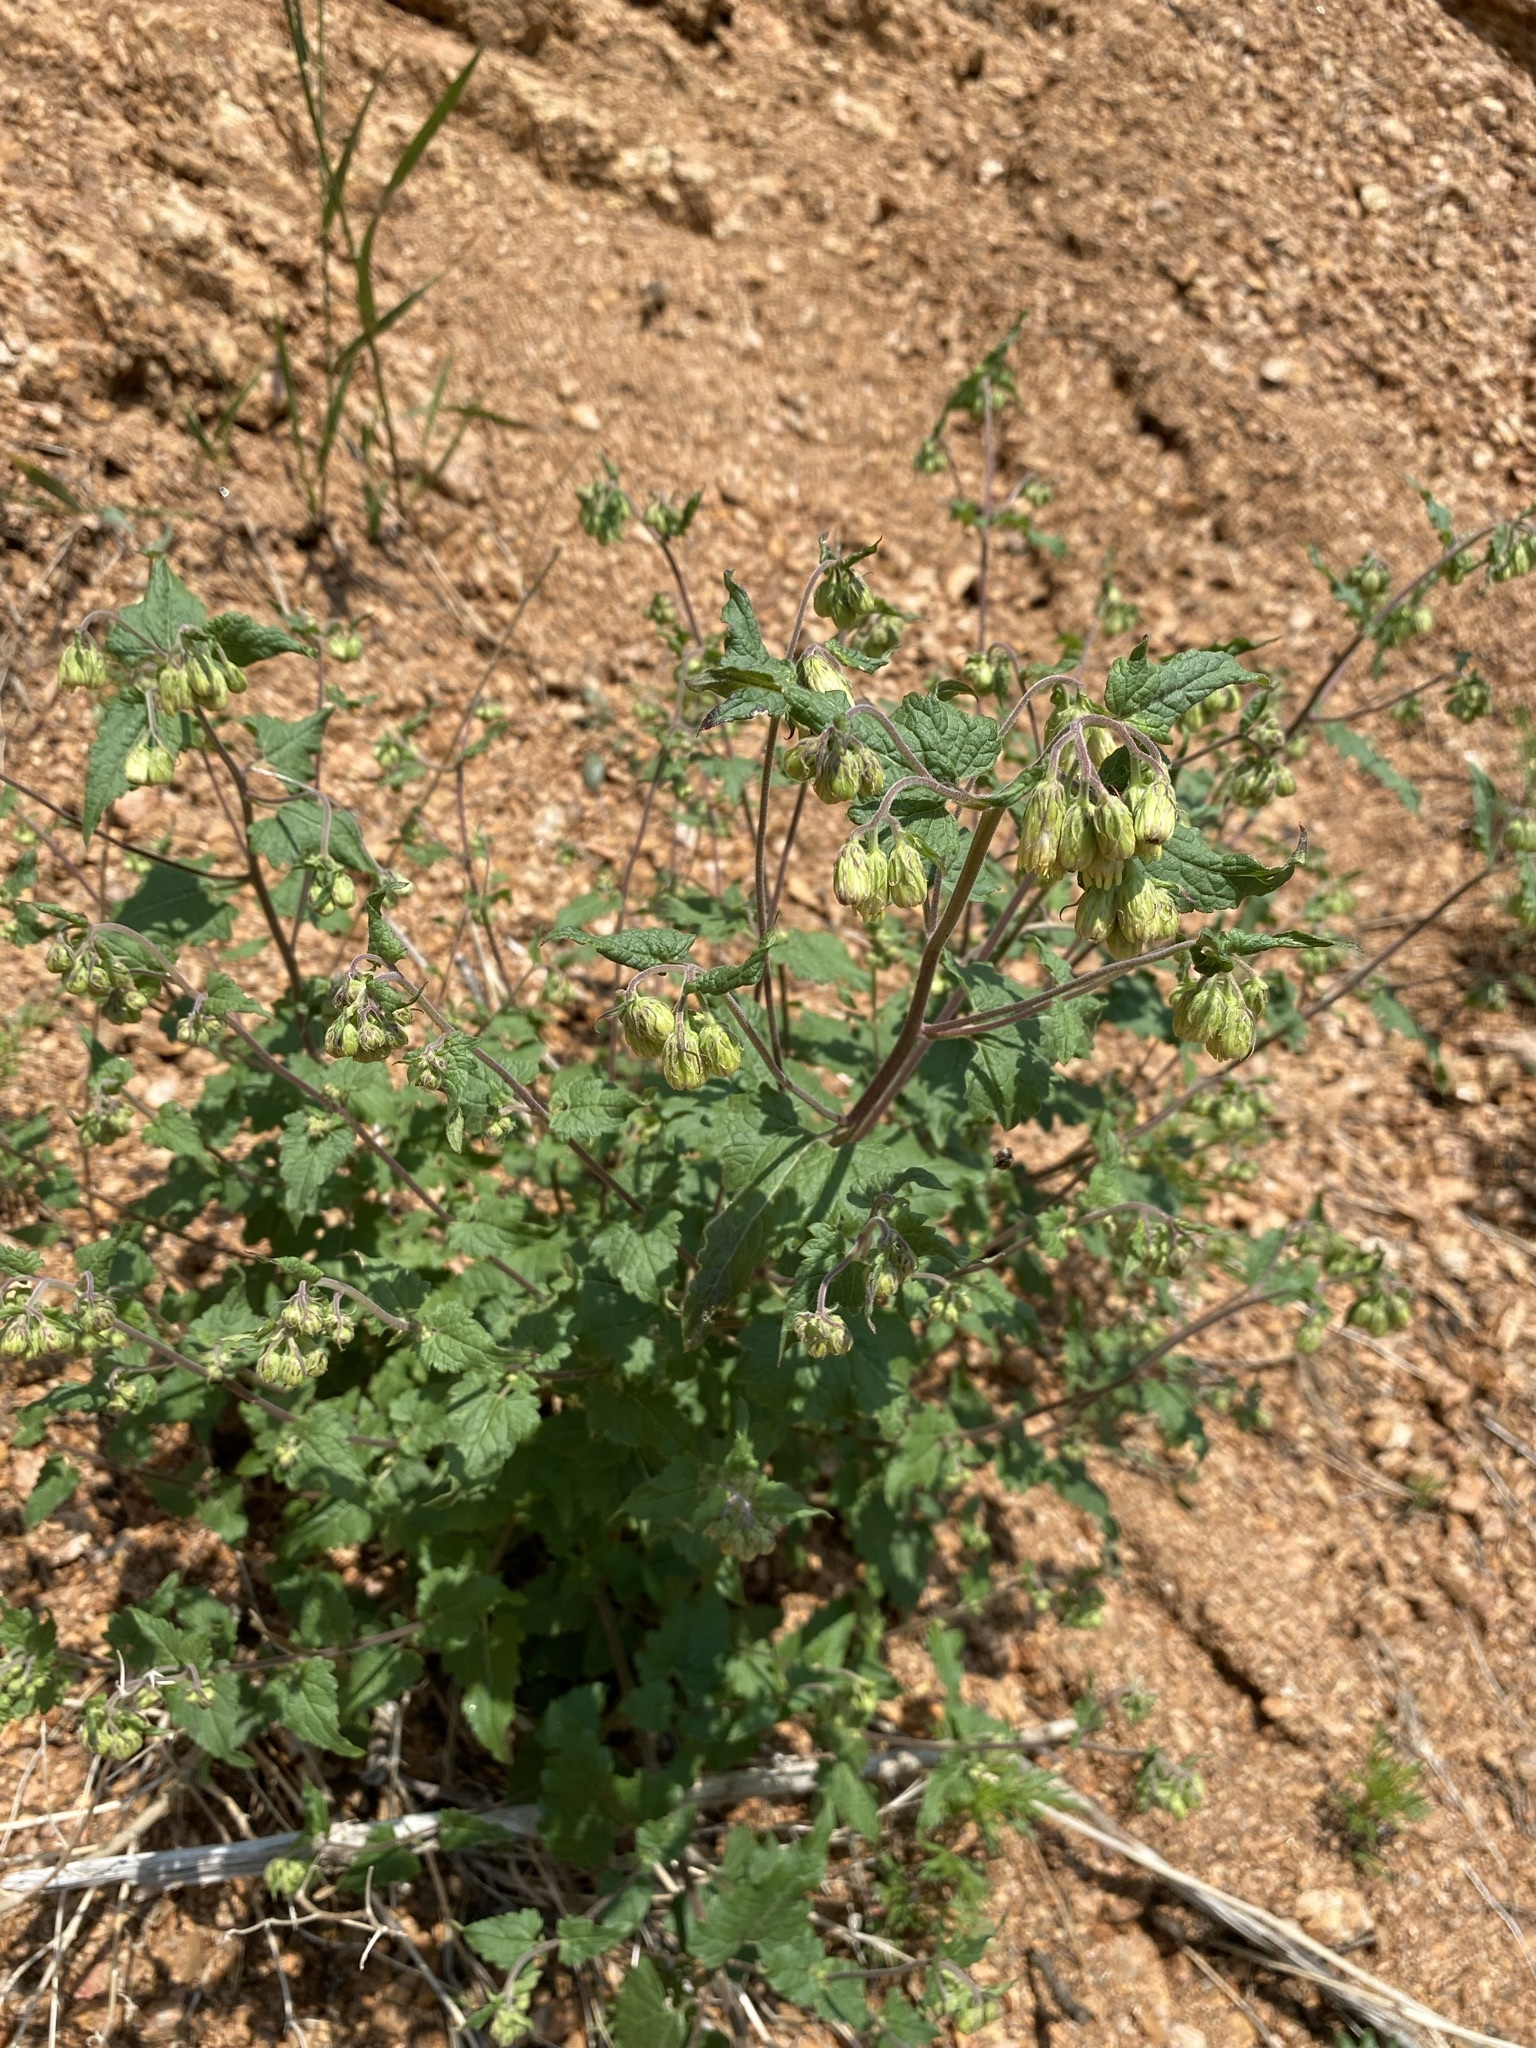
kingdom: Plantae
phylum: Tracheophyta
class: Magnoliopsida
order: Asterales
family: Asteraceae
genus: Brickellia
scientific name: Brickellia grandiflora
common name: Large-flowered brickellia
